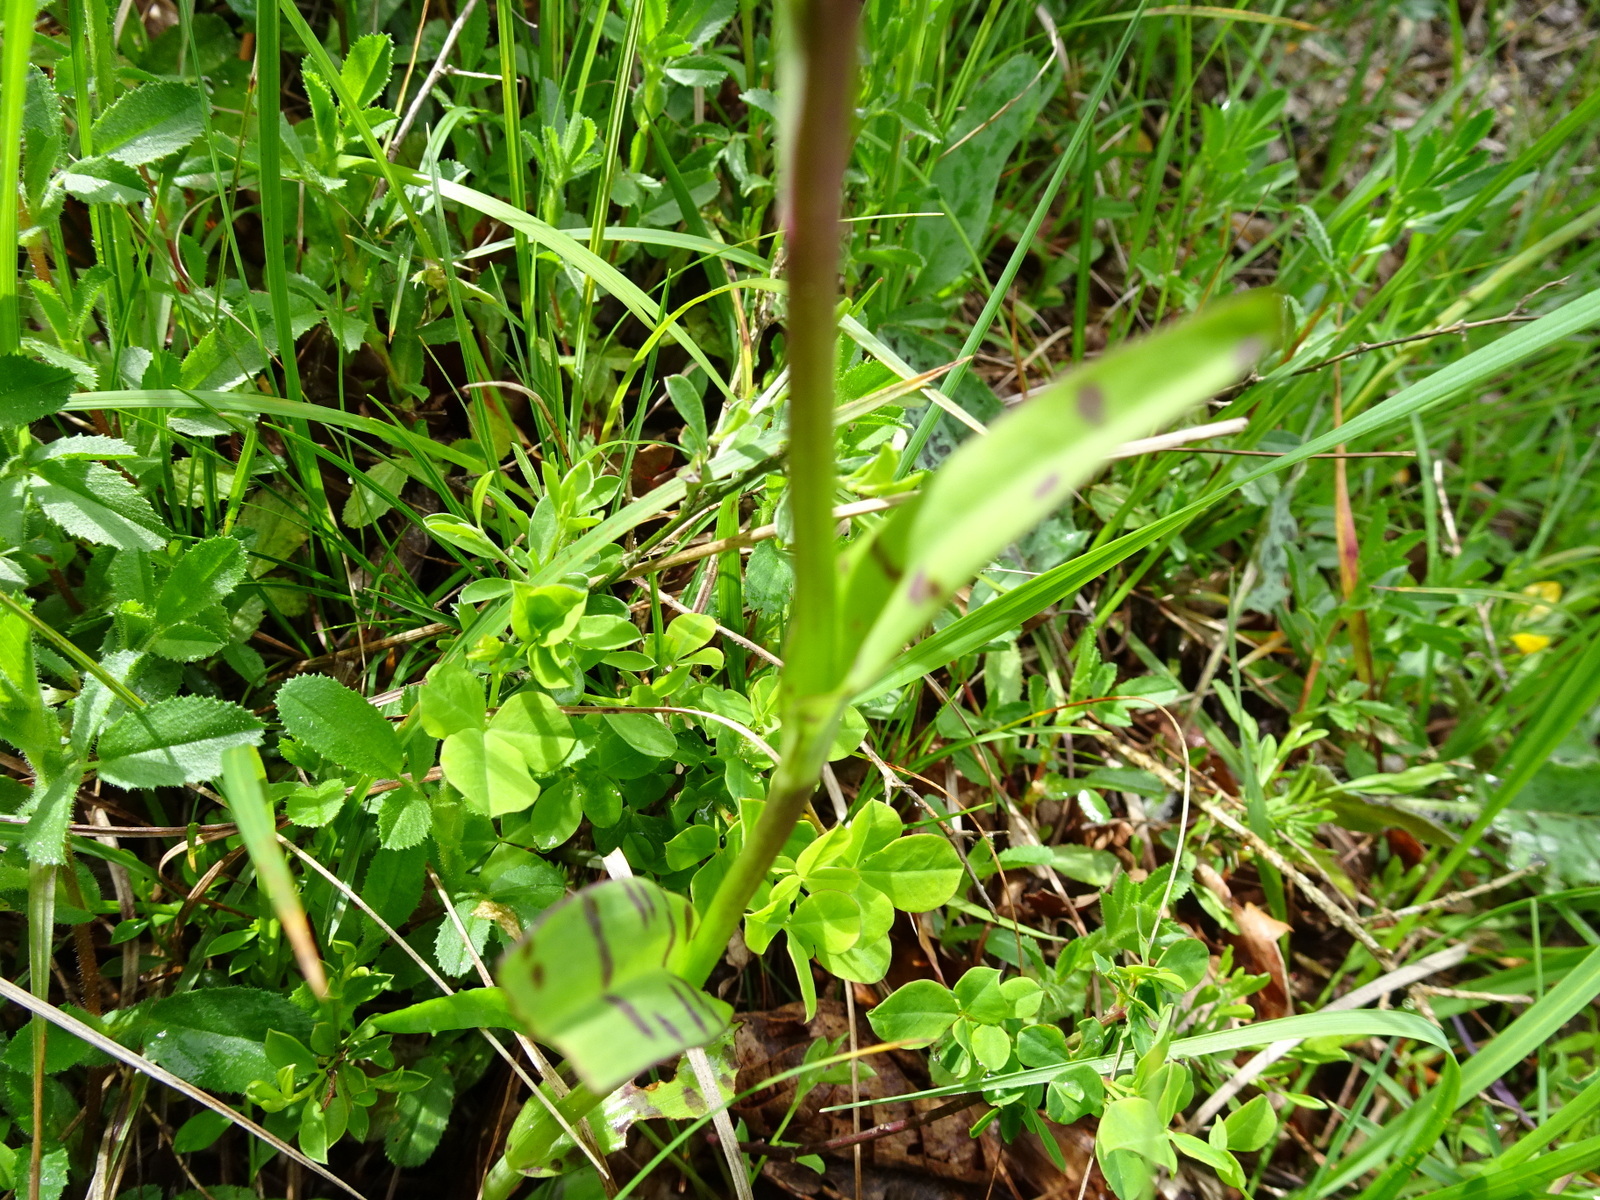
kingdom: Plantae
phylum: Tracheophyta
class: Liliopsida
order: Asparagales
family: Orchidaceae
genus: Dactylorhiza
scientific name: Dactylorhiza maculata
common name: Heath spotted-orchid
